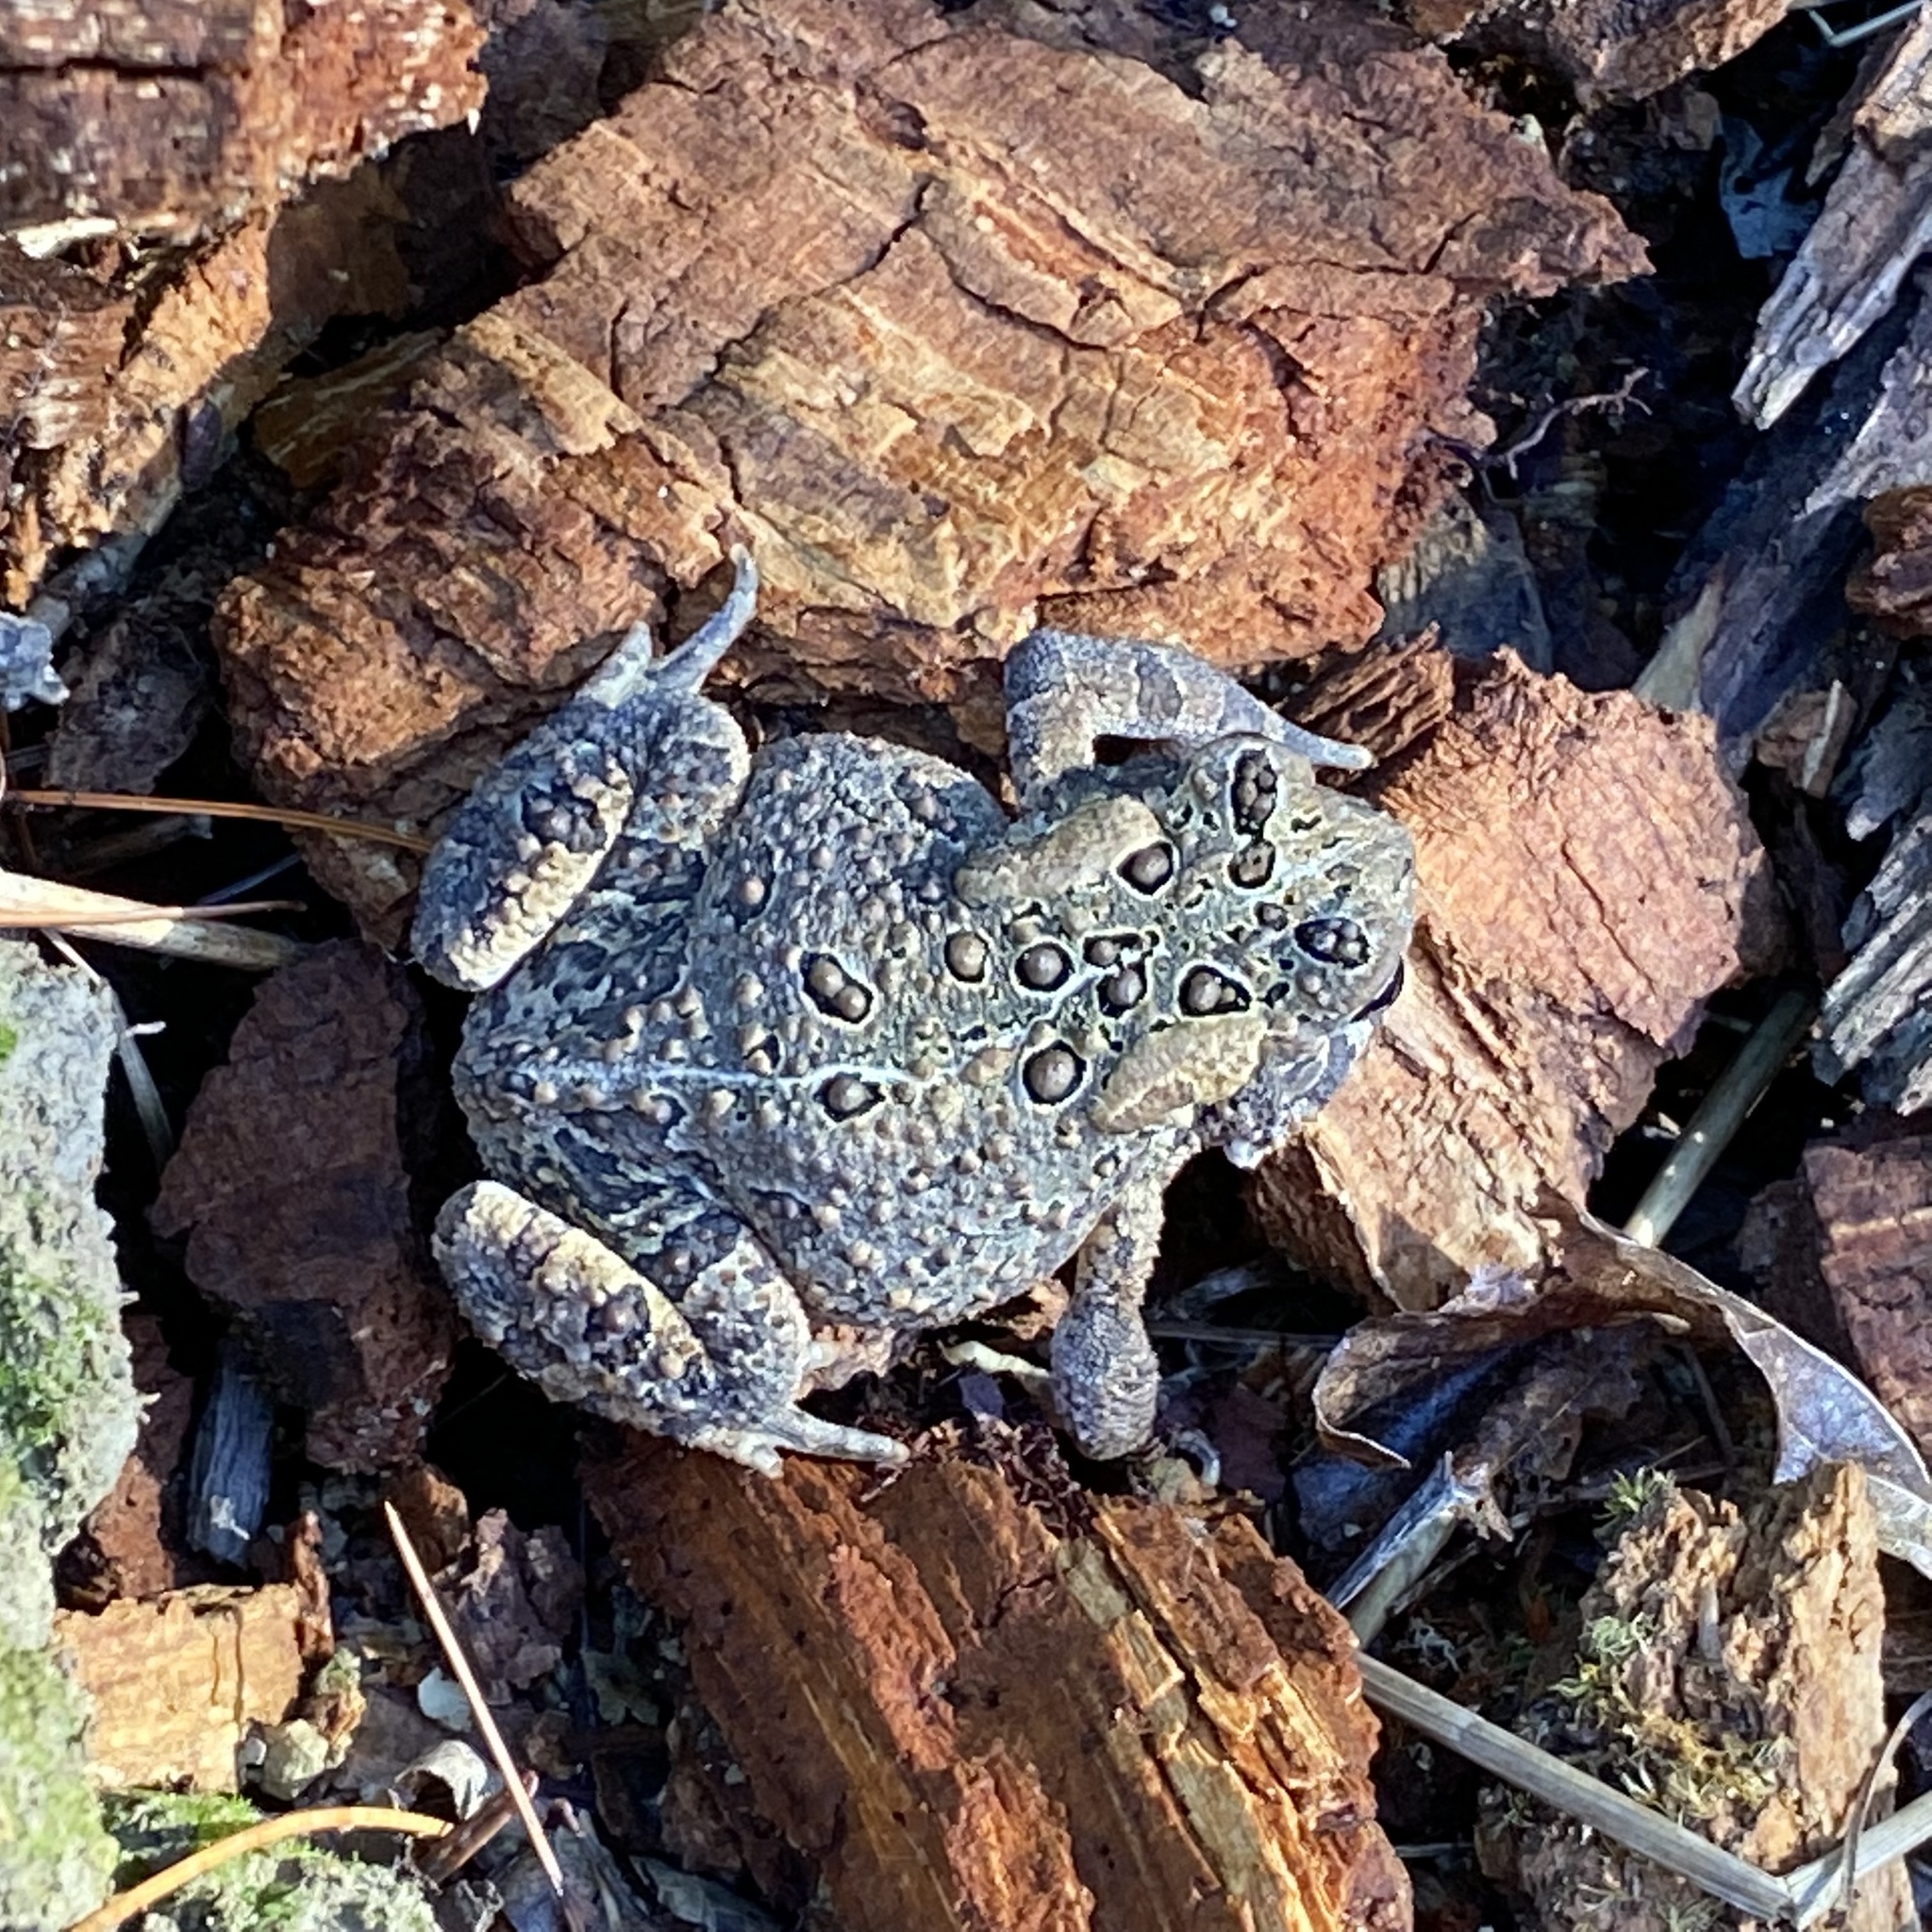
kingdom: Animalia
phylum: Chordata
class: Amphibia
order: Anura
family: Bufonidae
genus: Anaxyrus
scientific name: Anaxyrus americanus
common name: American toad
